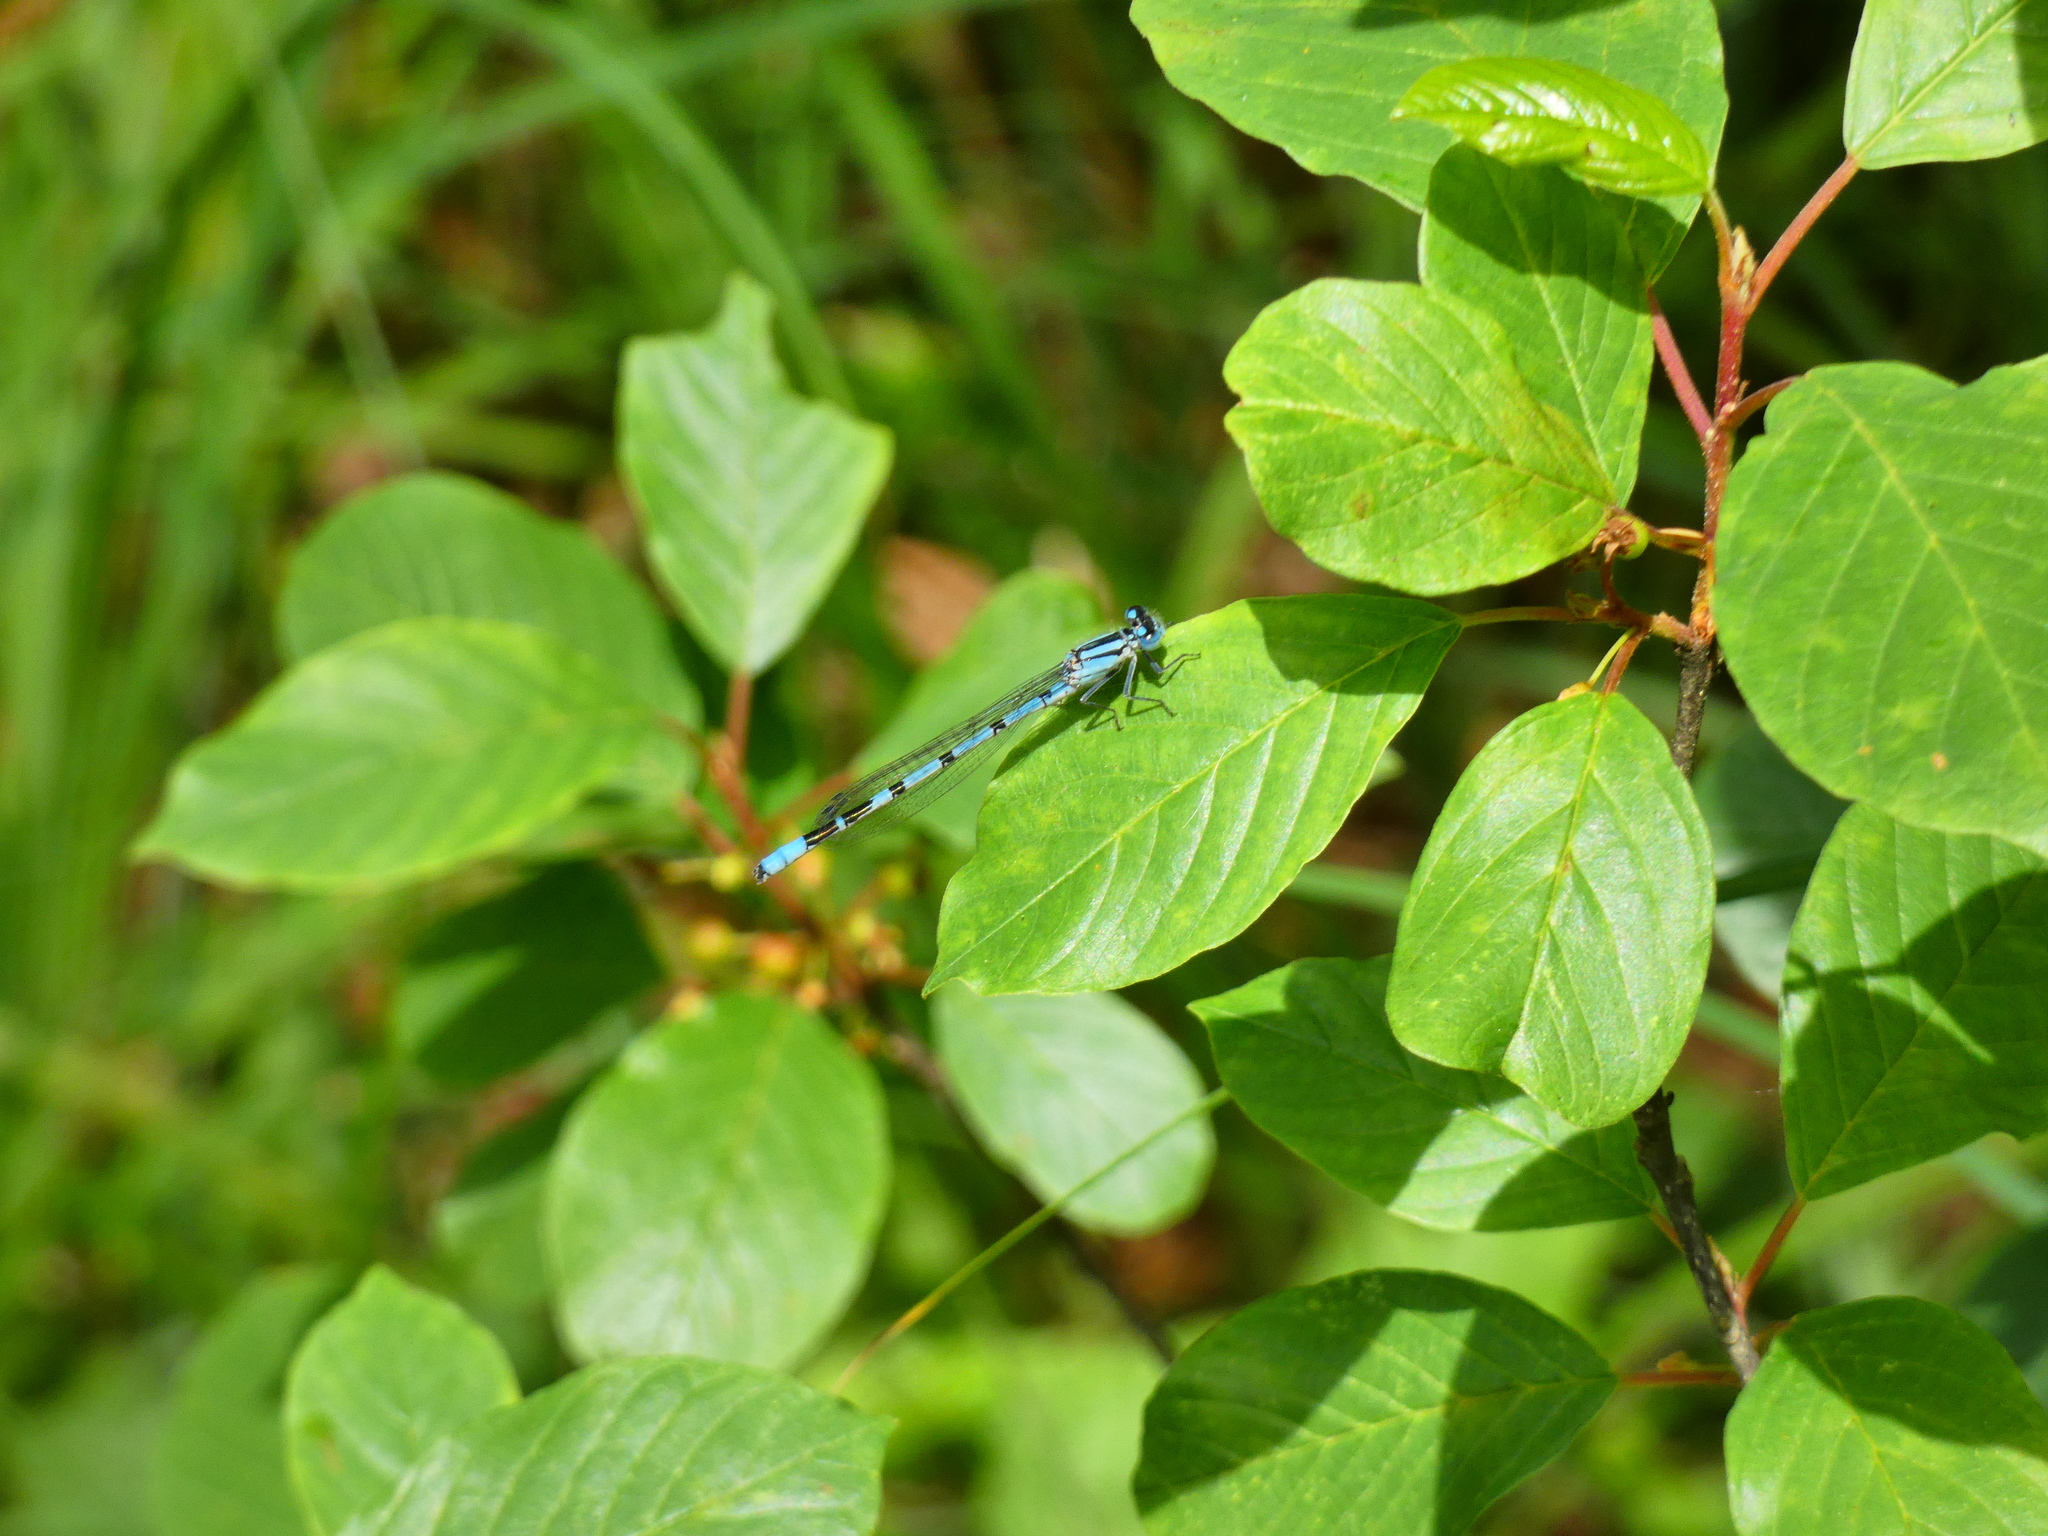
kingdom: Animalia
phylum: Arthropoda
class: Insecta
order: Odonata
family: Coenagrionidae
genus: Enallagma
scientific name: Enallagma cyathigerum
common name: Common blue damselfly
